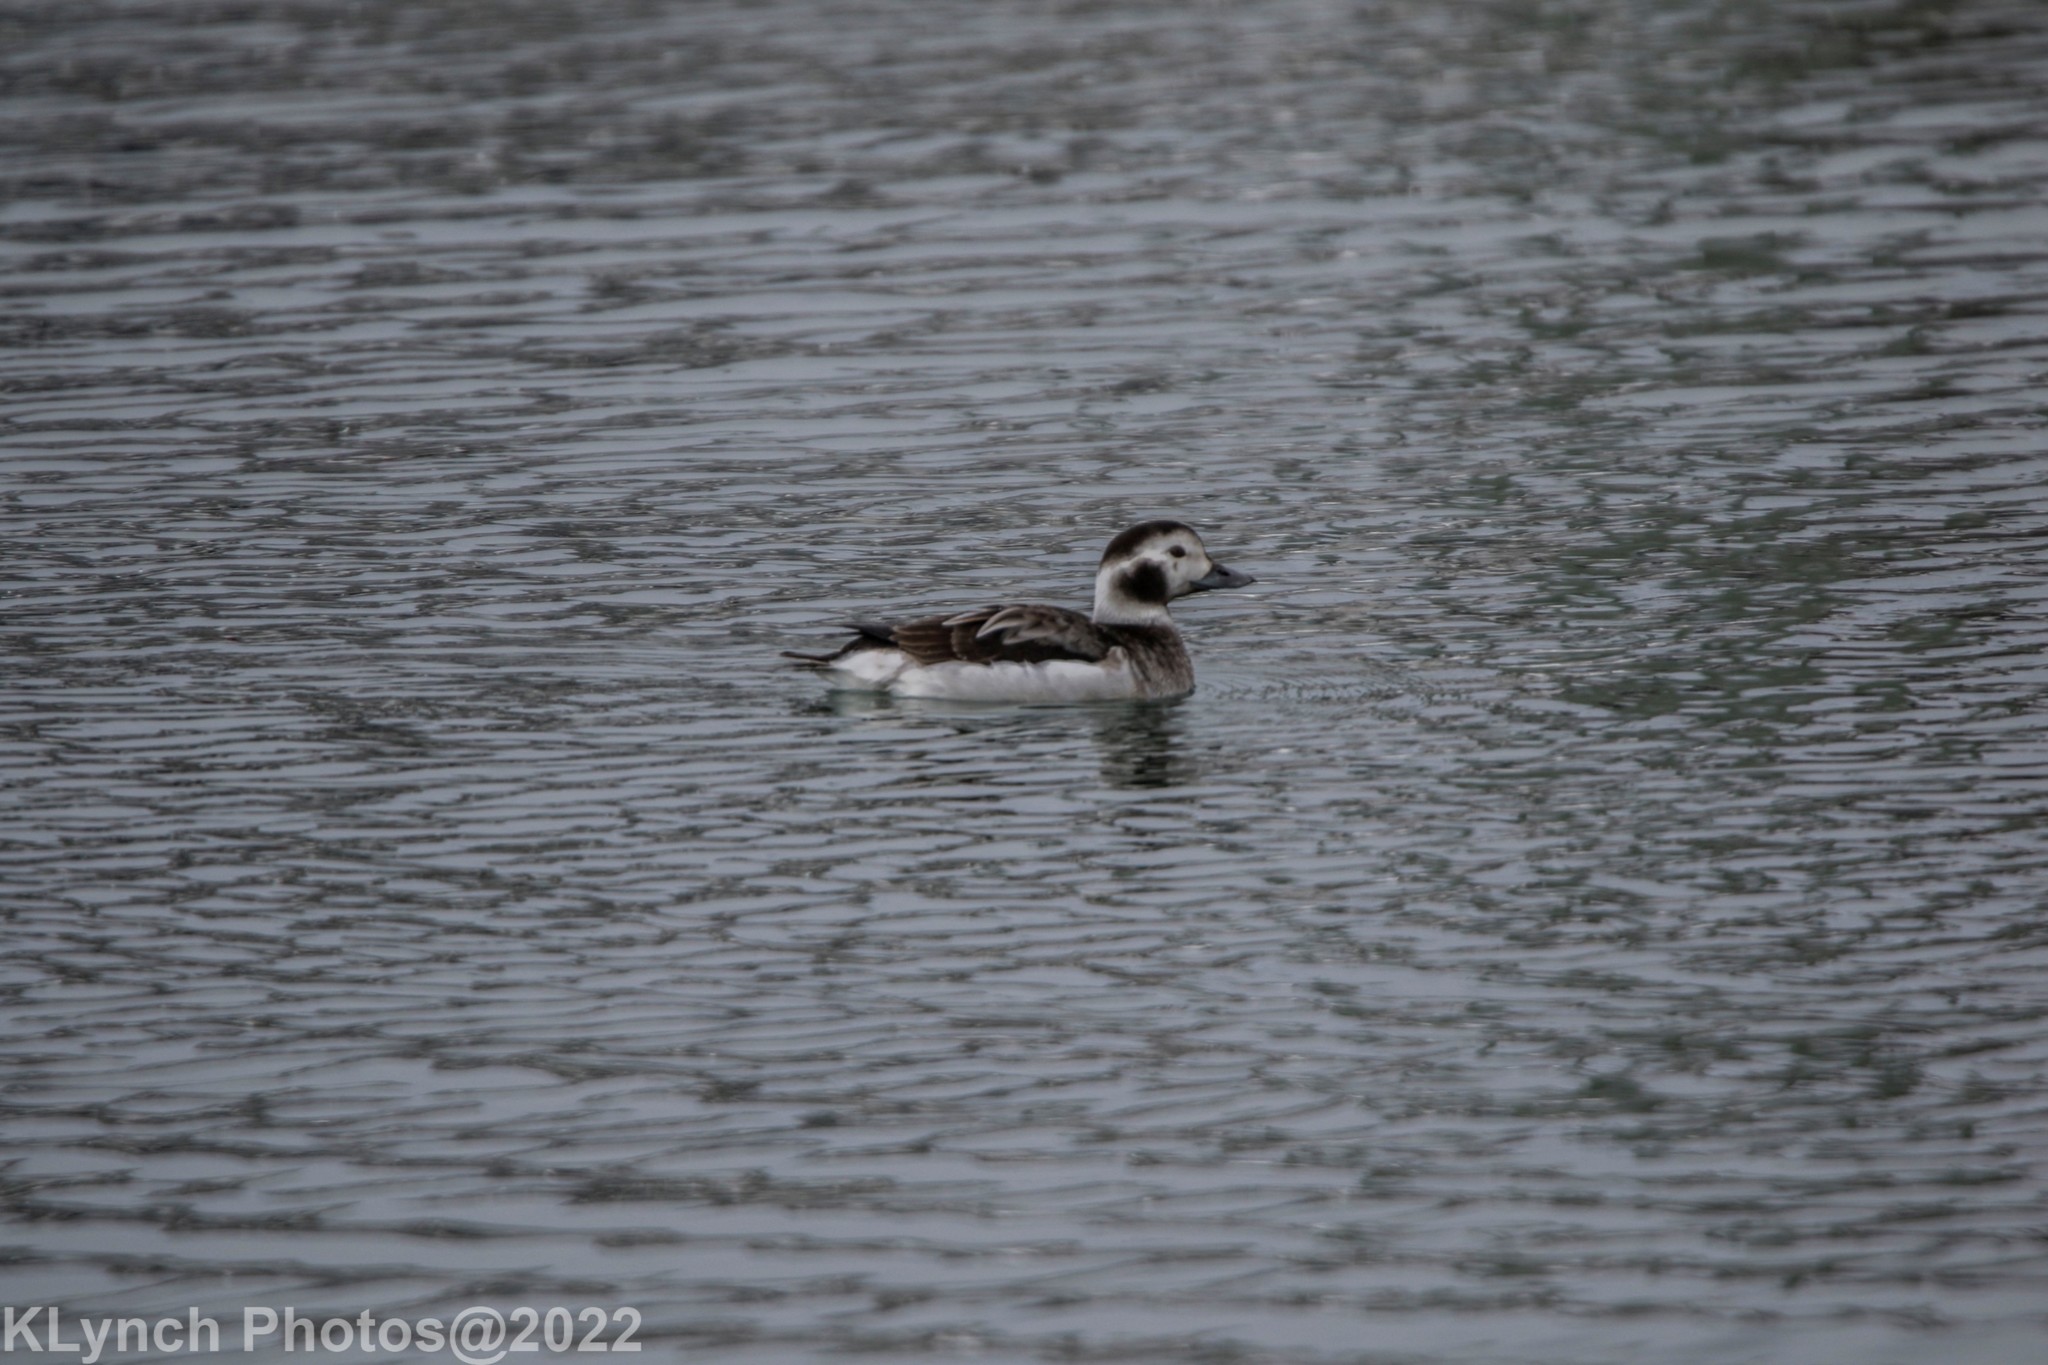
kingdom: Animalia
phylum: Chordata
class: Aves
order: Anseriformes
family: Anatidae
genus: Clangula
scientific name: Clangula hyemalis
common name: Long-tailed duck
